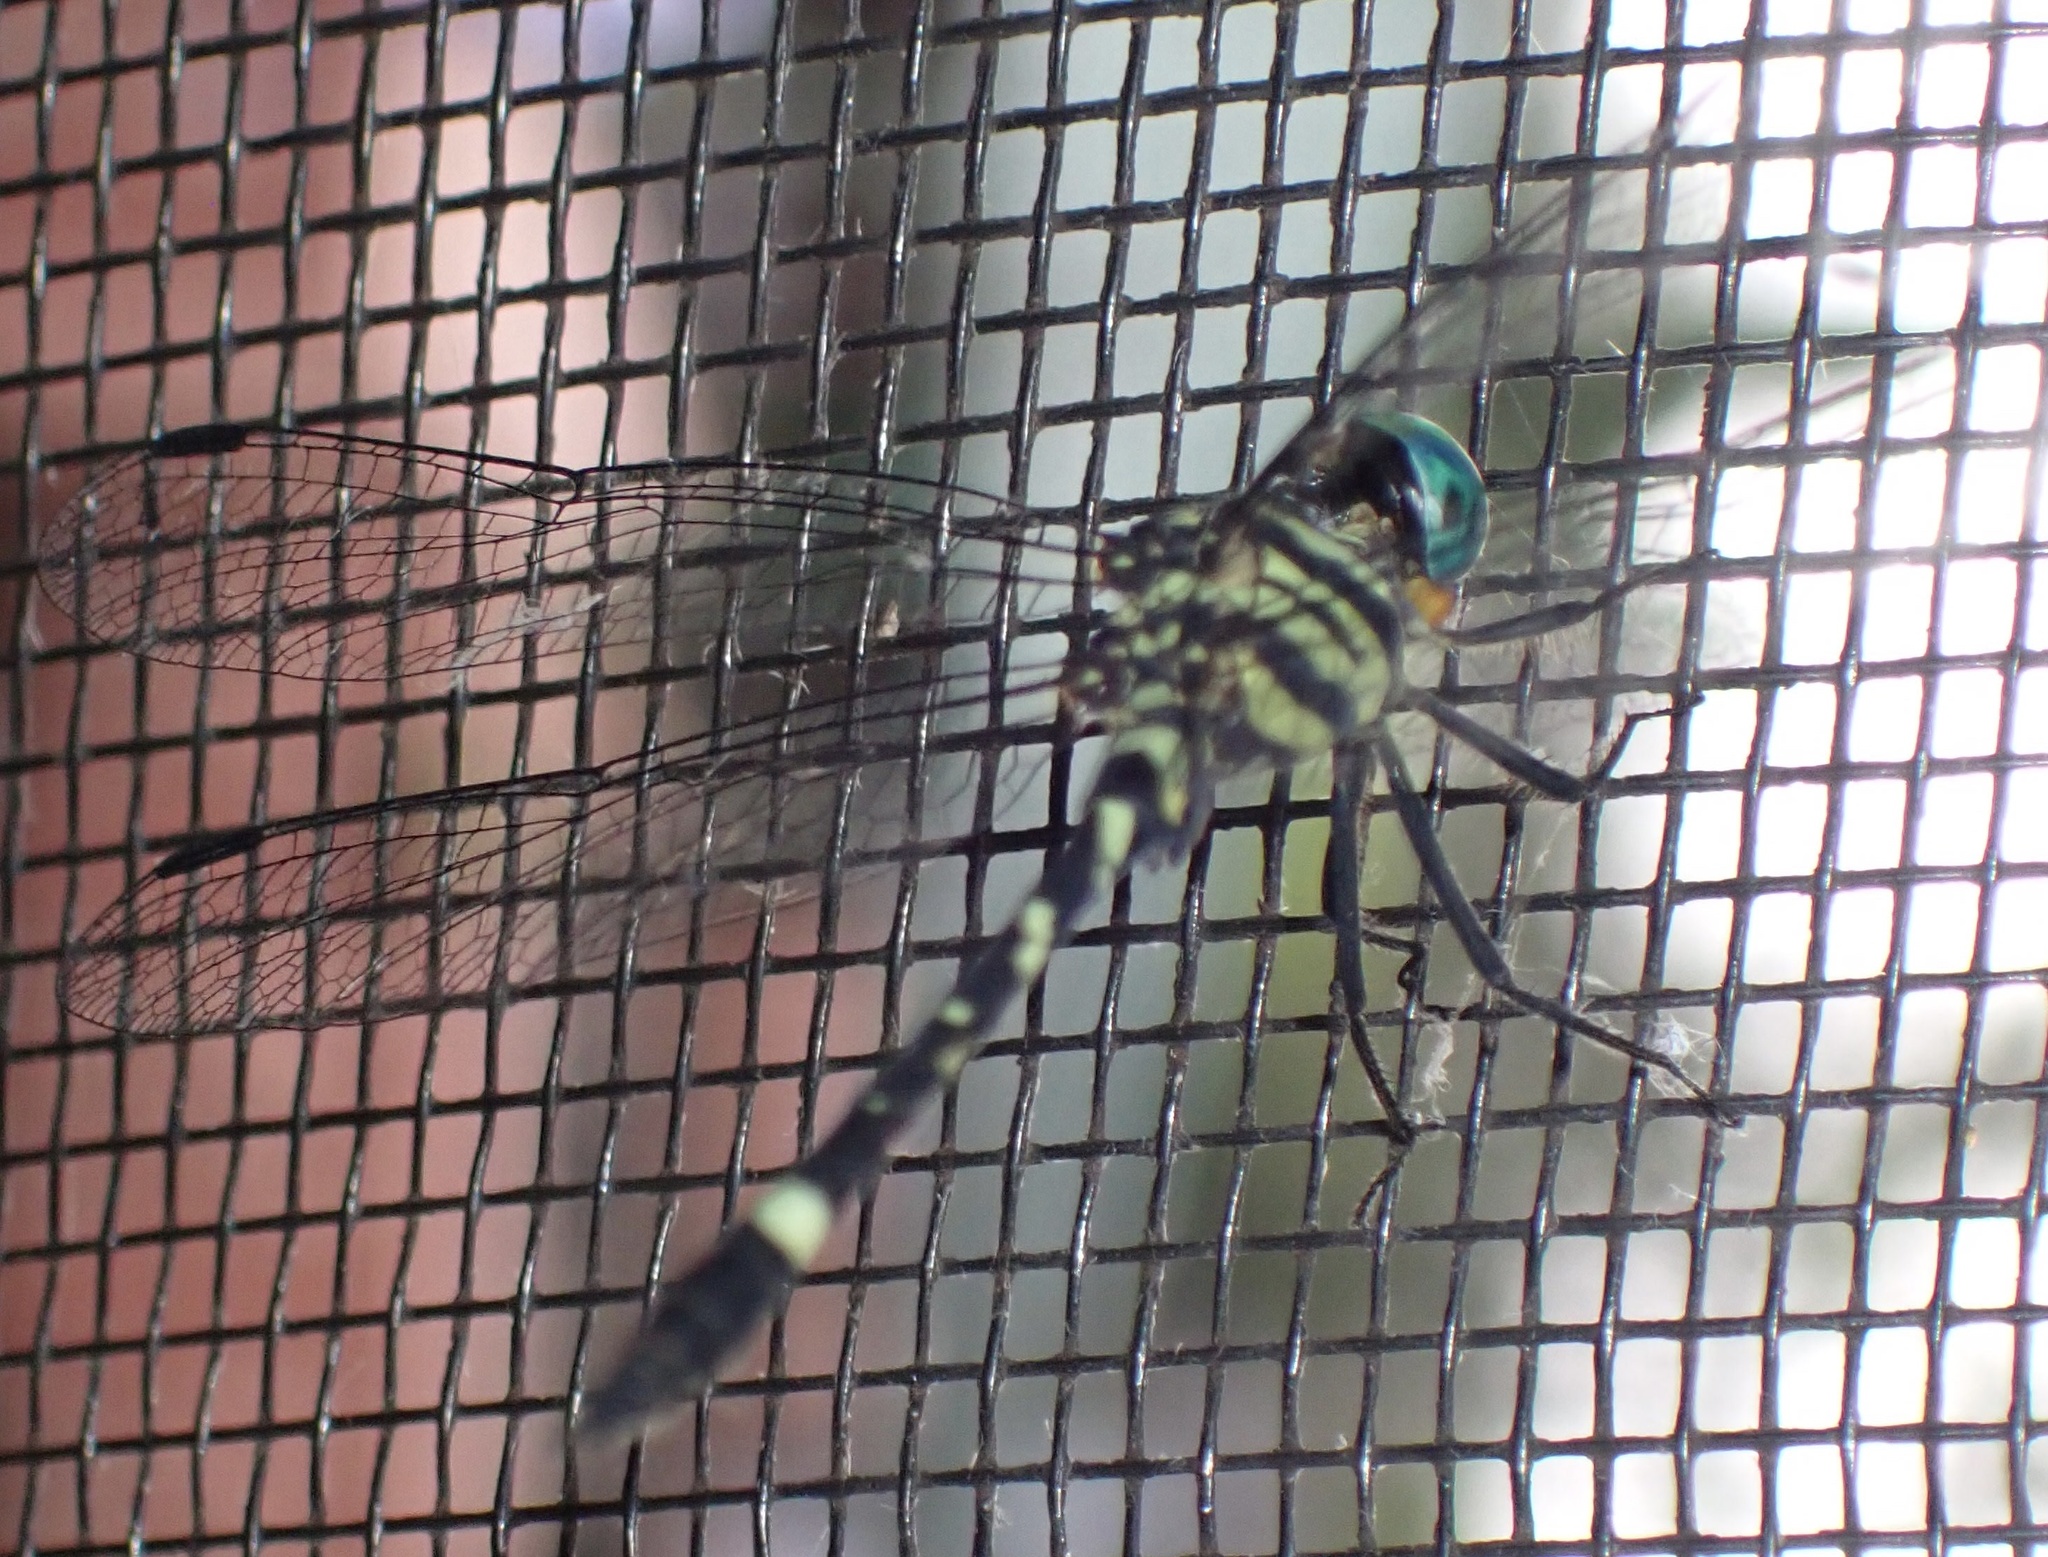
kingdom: Animalia
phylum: Arthropoda
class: Insecta
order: Odonata
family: Libellulidae
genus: Notiothemis
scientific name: Notiothemis robertsi
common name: Western forestwatcher
